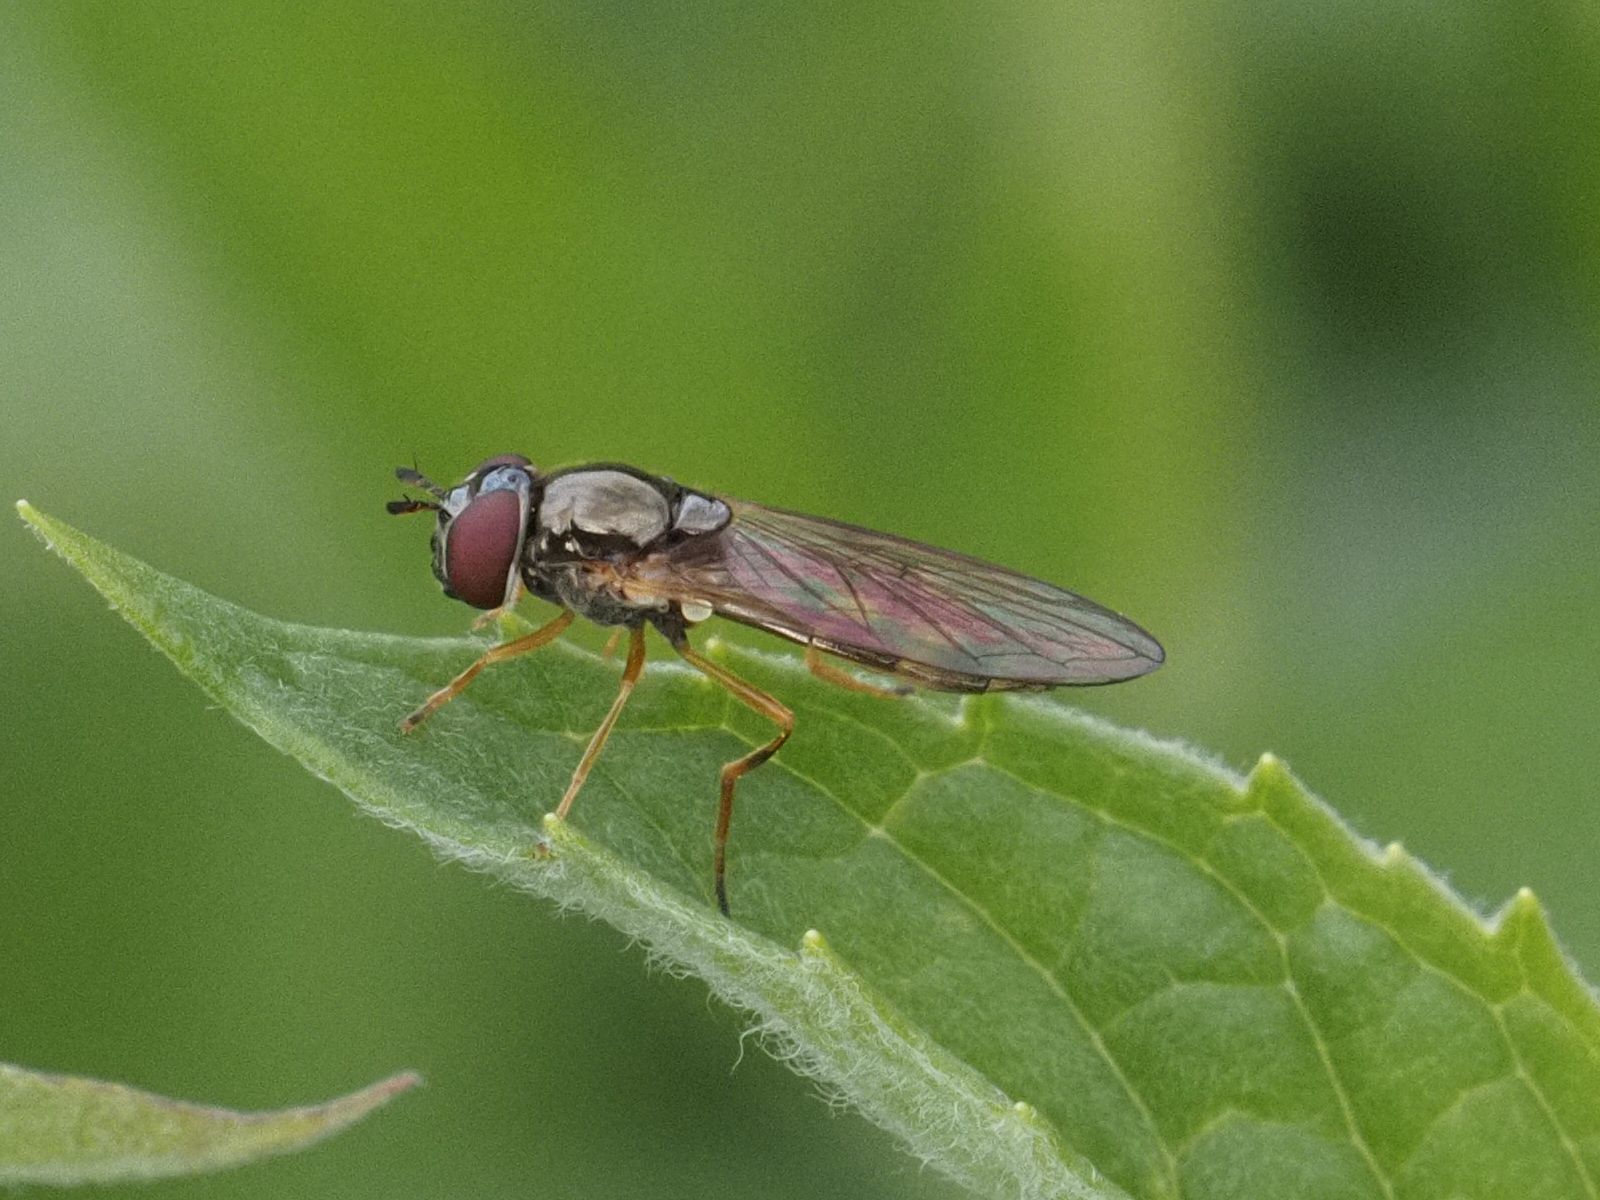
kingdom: Animalia
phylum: Arthropoda
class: Insecta
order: Diptera
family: Syrphidae
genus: Melanostoma
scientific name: Melanostoma mellina
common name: Hover fly
